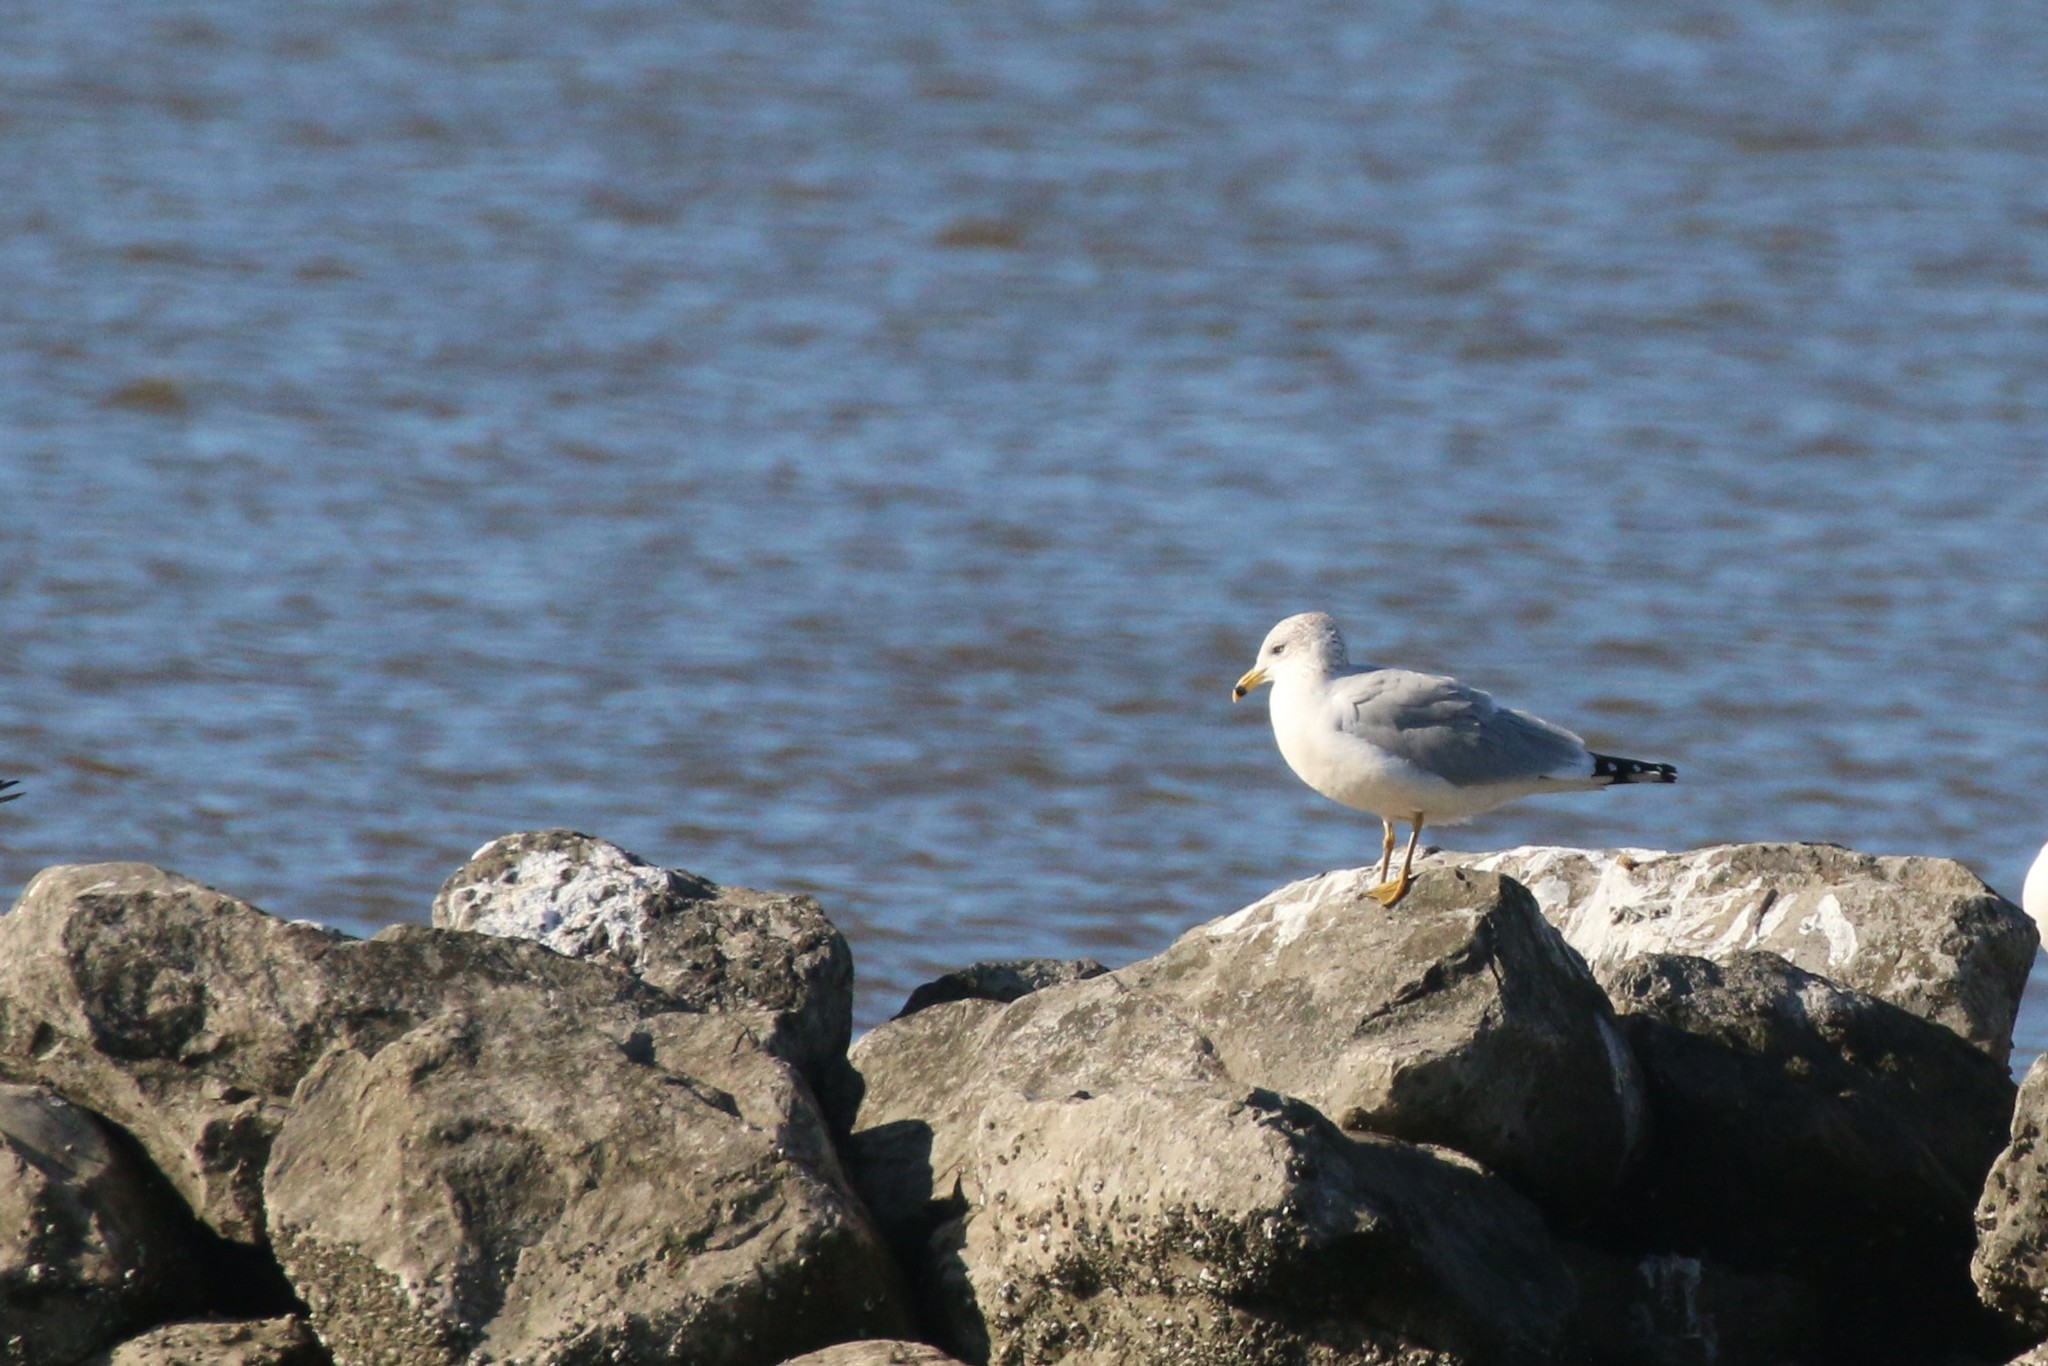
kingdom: Animalia
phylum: Chordata
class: Aves
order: Charadriiformes
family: Laridae
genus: Larus
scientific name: Larus delawarensis
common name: Ring-billed gull
